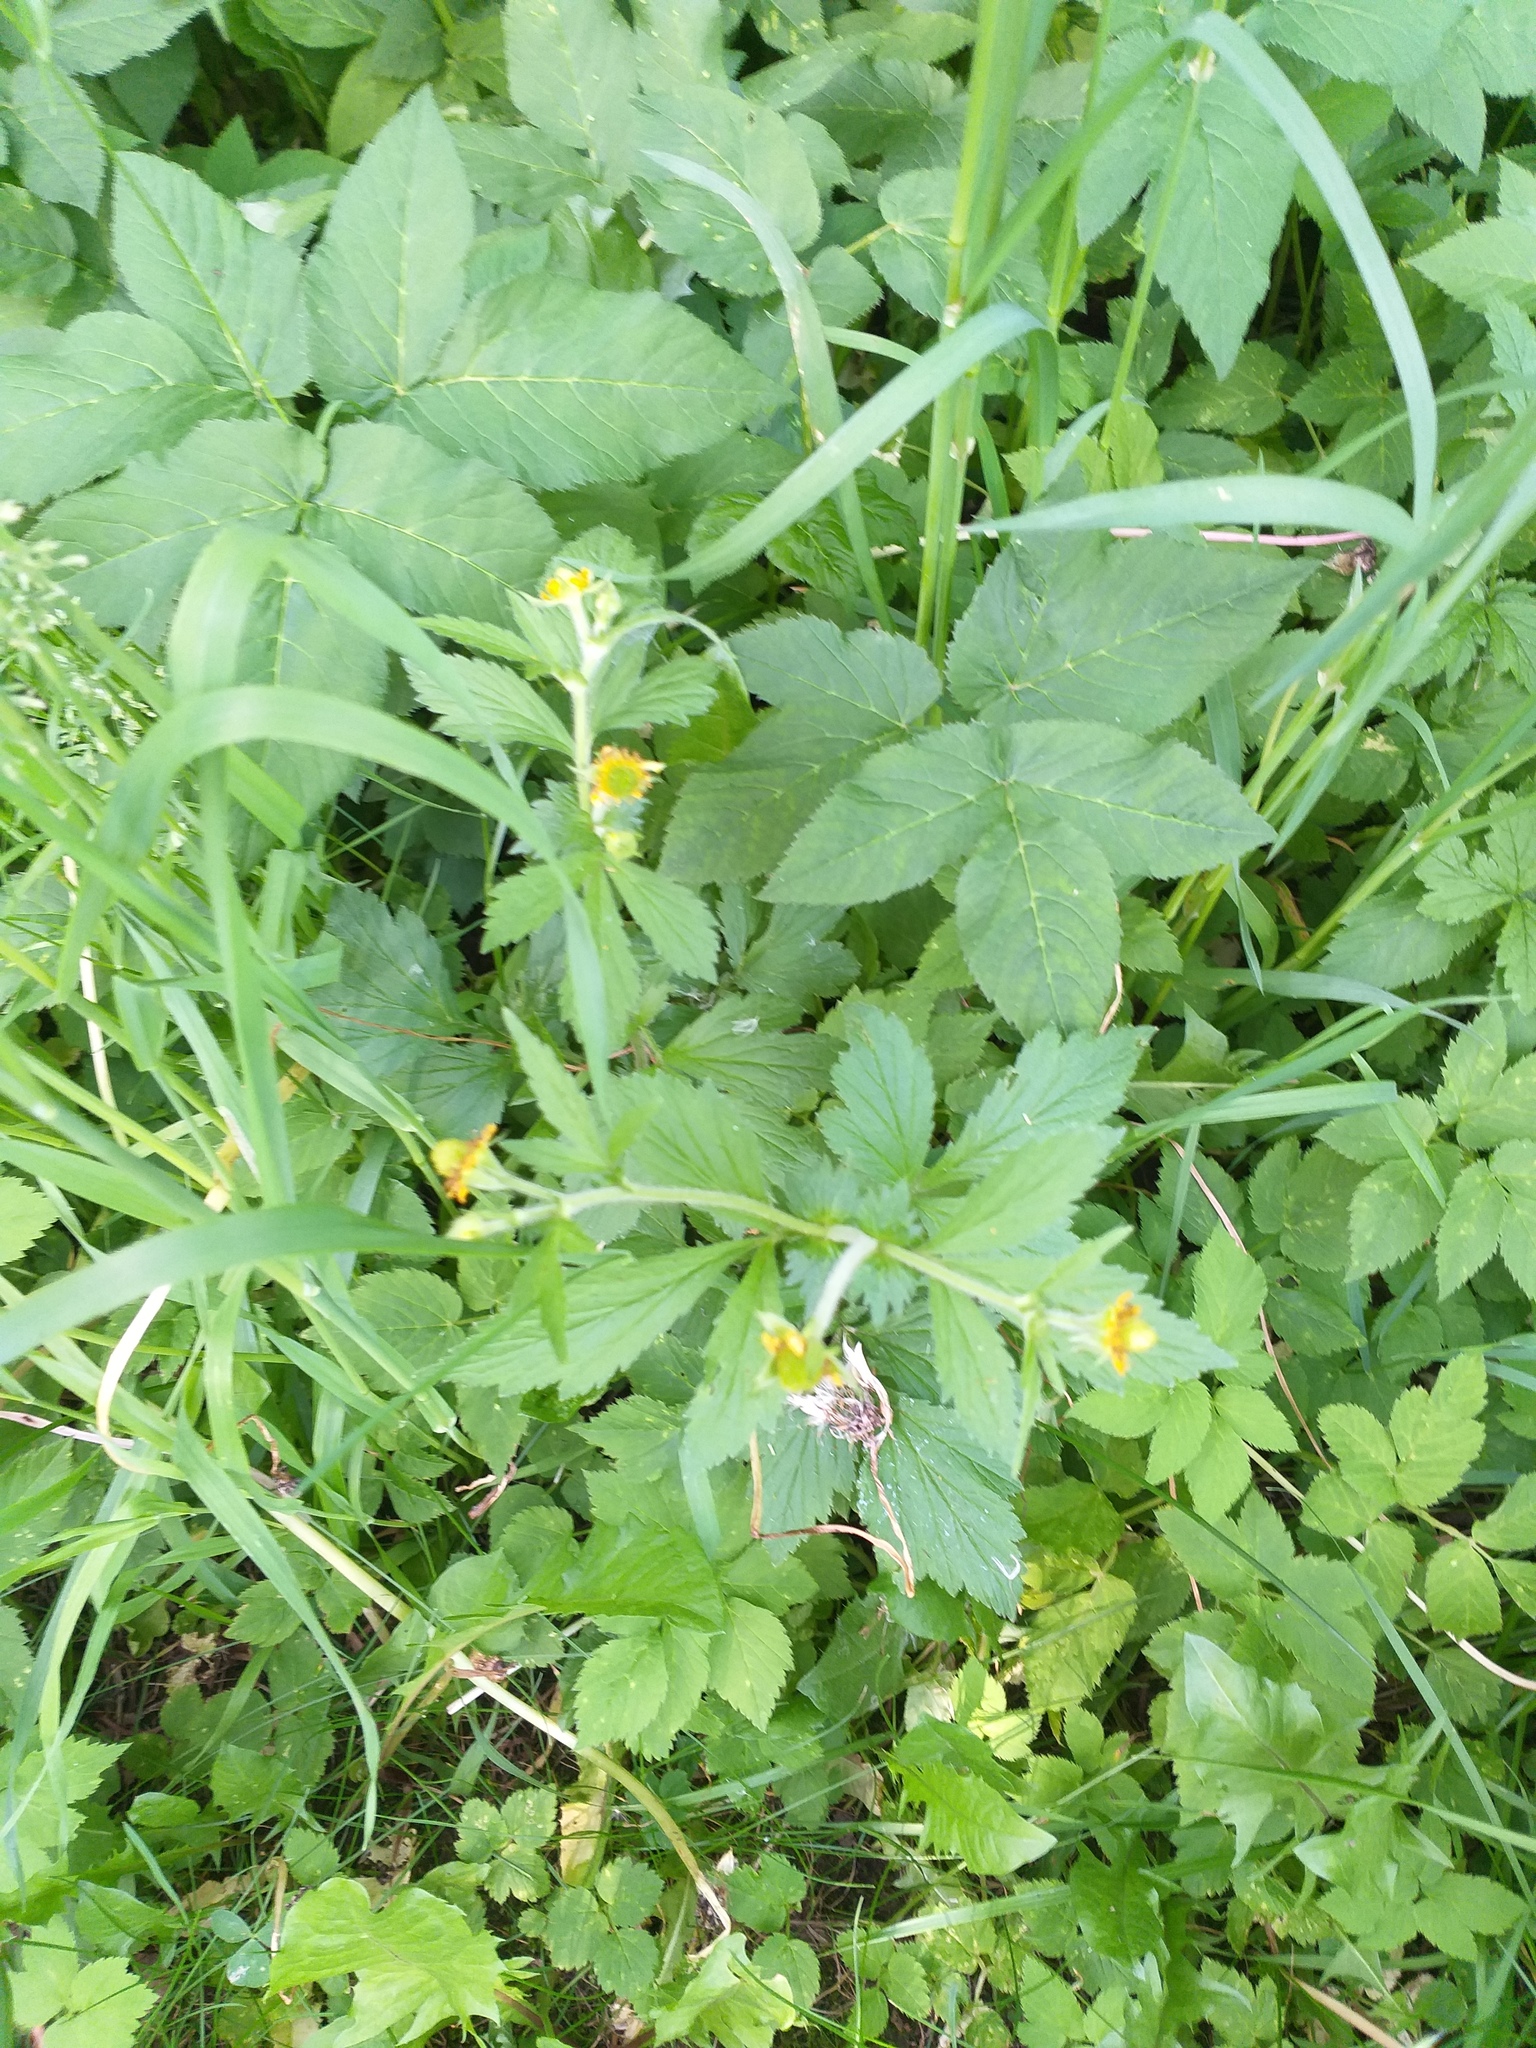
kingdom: Plantae
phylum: Tracheophyta
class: Magnoliopsida
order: Rosales
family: Rosaceae
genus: Geum
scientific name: Geum aleppicum
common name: Yellow avens
